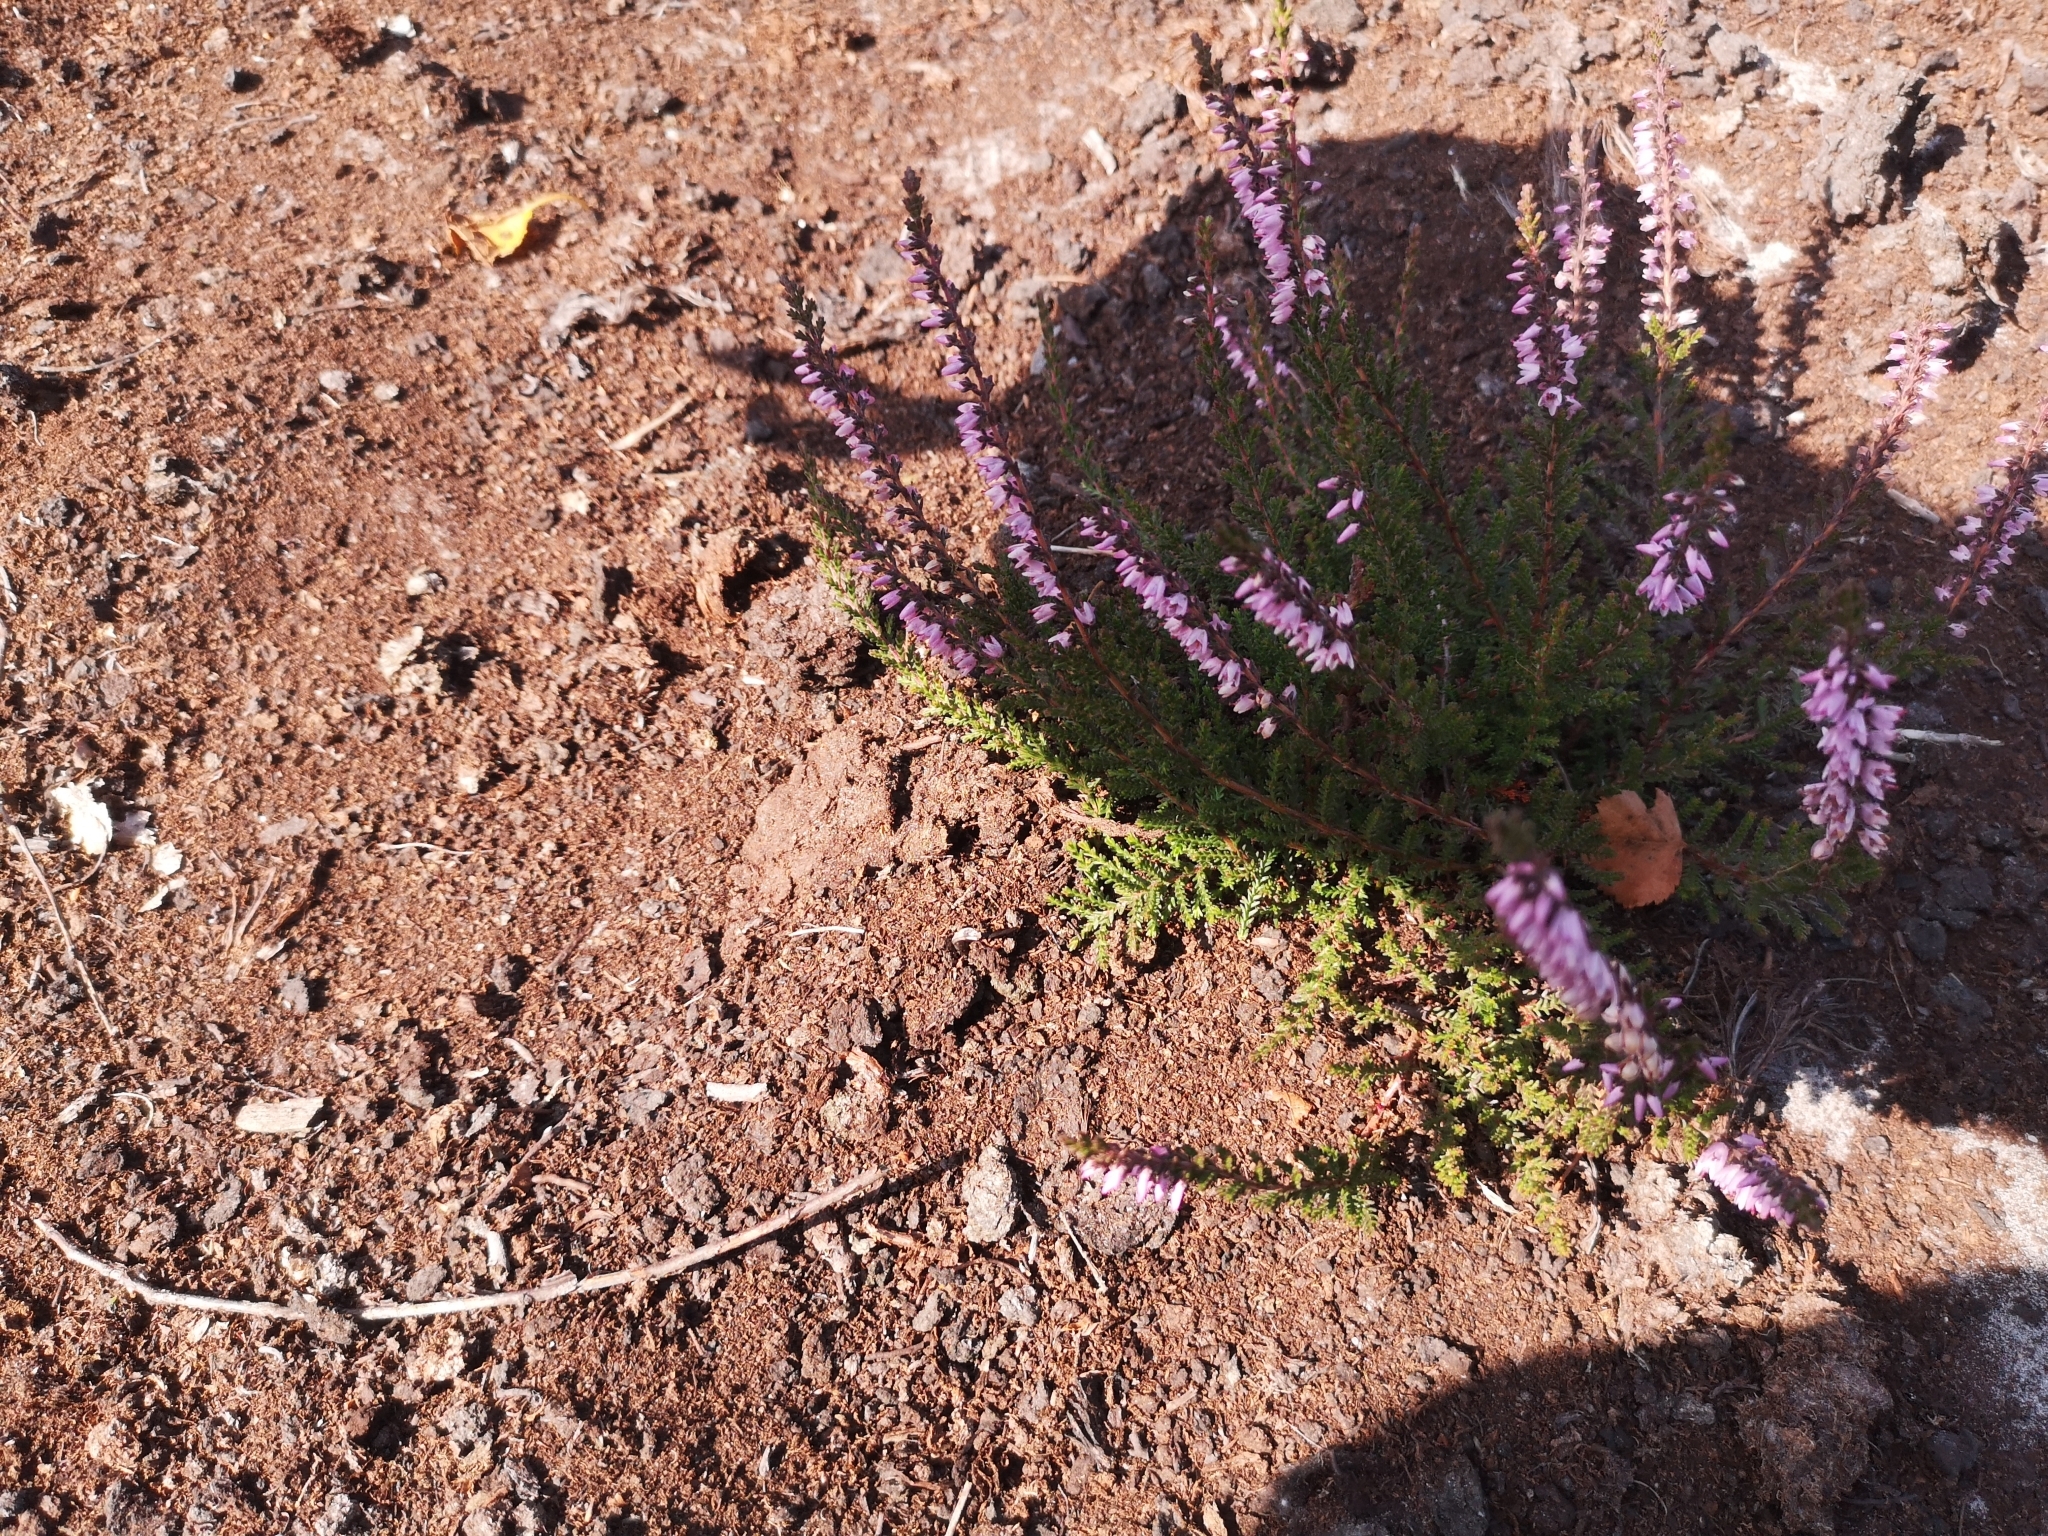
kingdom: Plantae
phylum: Tracheophyta
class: Magnoliopsida
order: Ericales
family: Ericaceae
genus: Calluna
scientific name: Calluna vulgaris
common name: Heather
